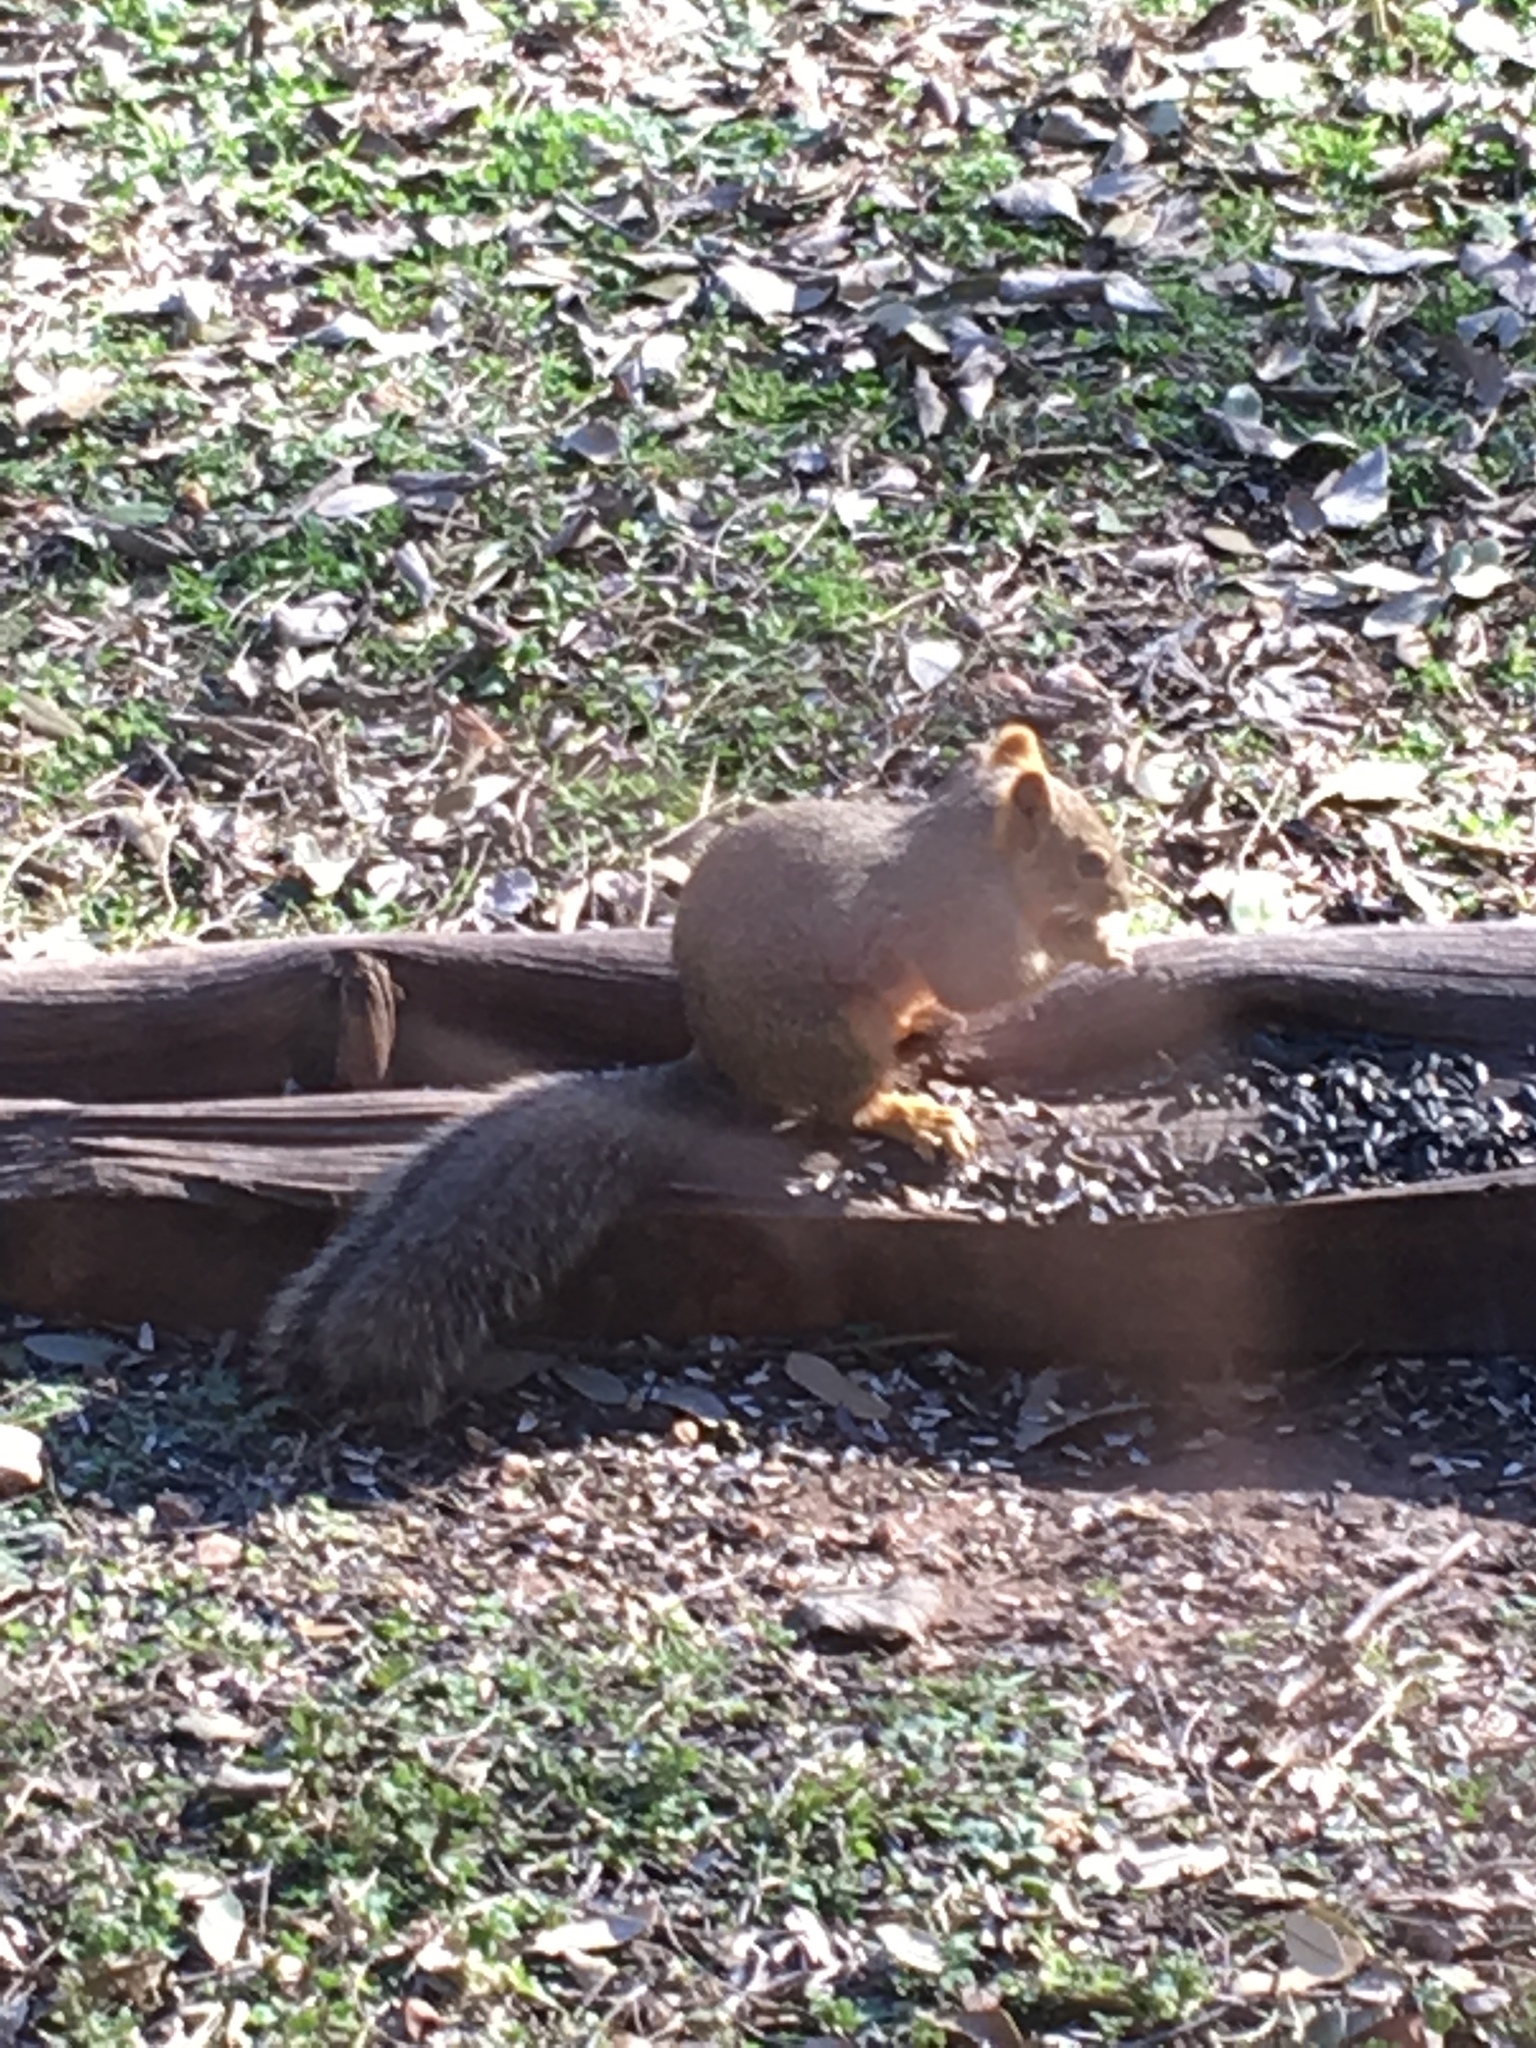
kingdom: Animalia
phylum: Chordata
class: Mammalia
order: Rodentia
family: Sciuridae
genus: Sciurus
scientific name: Sciurus niger
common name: Fox squirrel
